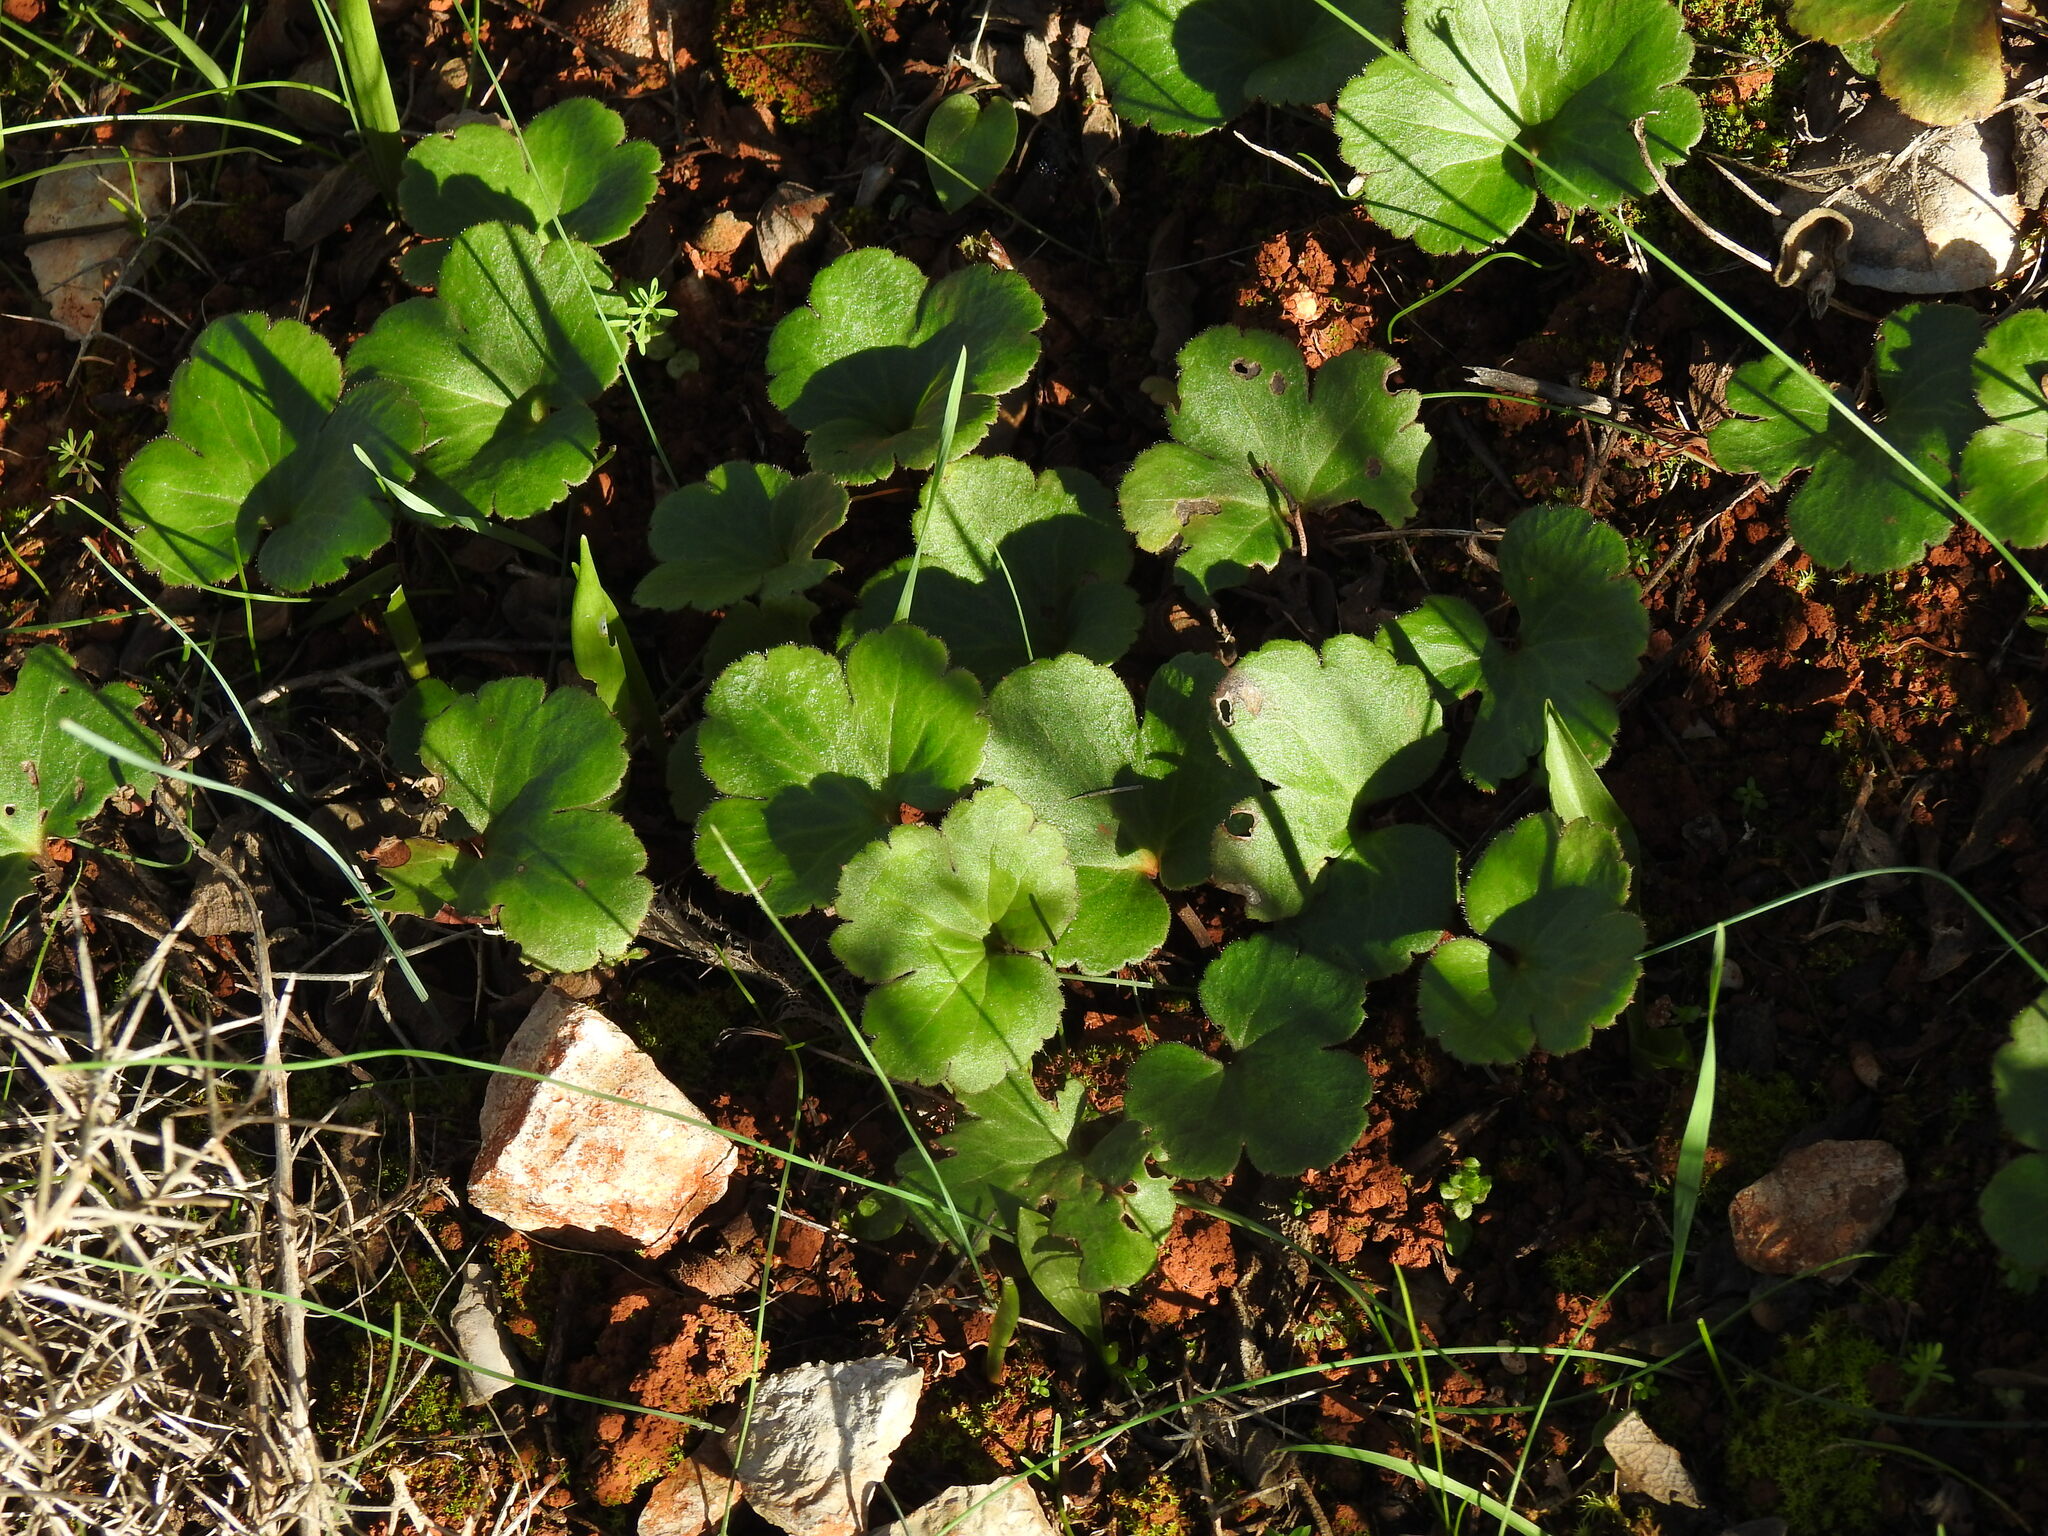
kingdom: Plantae
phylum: Tracheophyta
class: Magnoliopsida
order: Ranunculales
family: Ranunculaceae
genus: Anemone
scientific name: Anemone palmata
